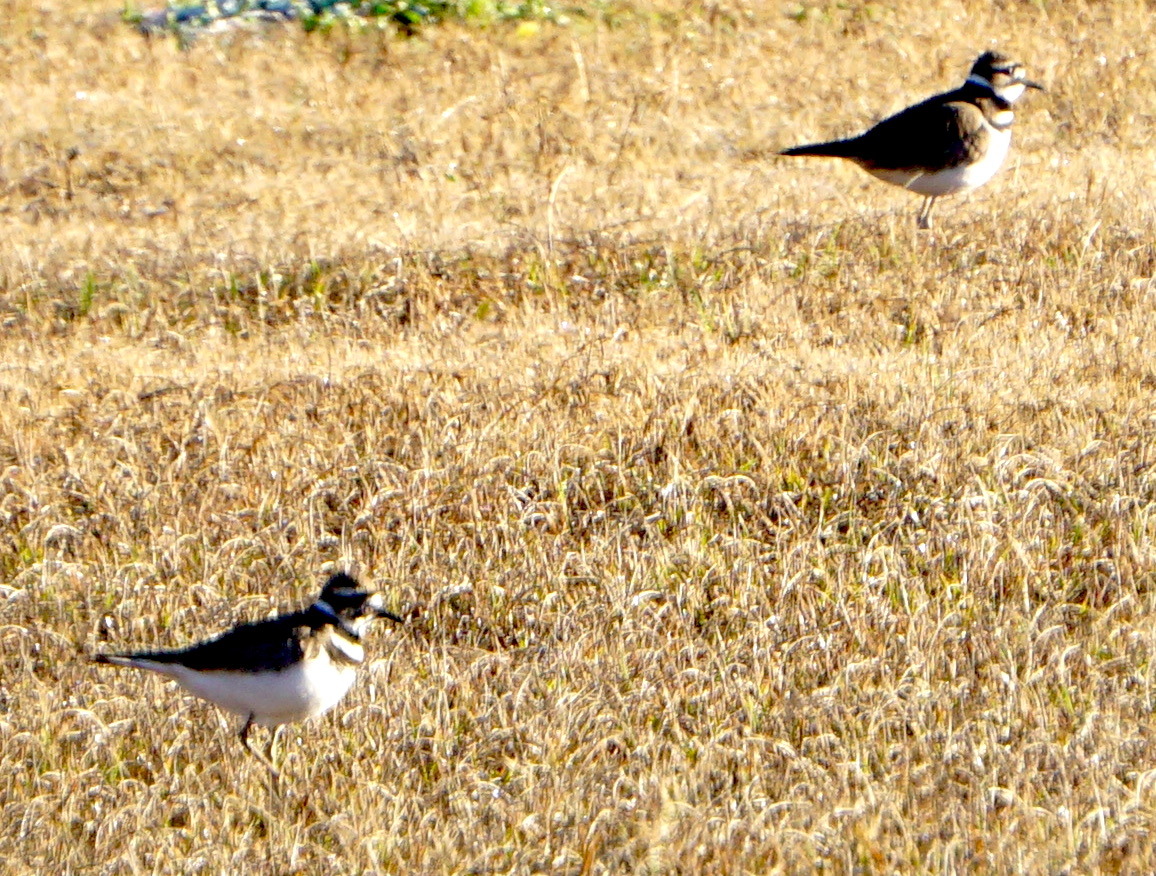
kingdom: Animalia
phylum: Chordata
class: Aves
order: Charadriiformes
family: Charadriidae
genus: Charadrius
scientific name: Charadrius vociferus
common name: Killdeer
